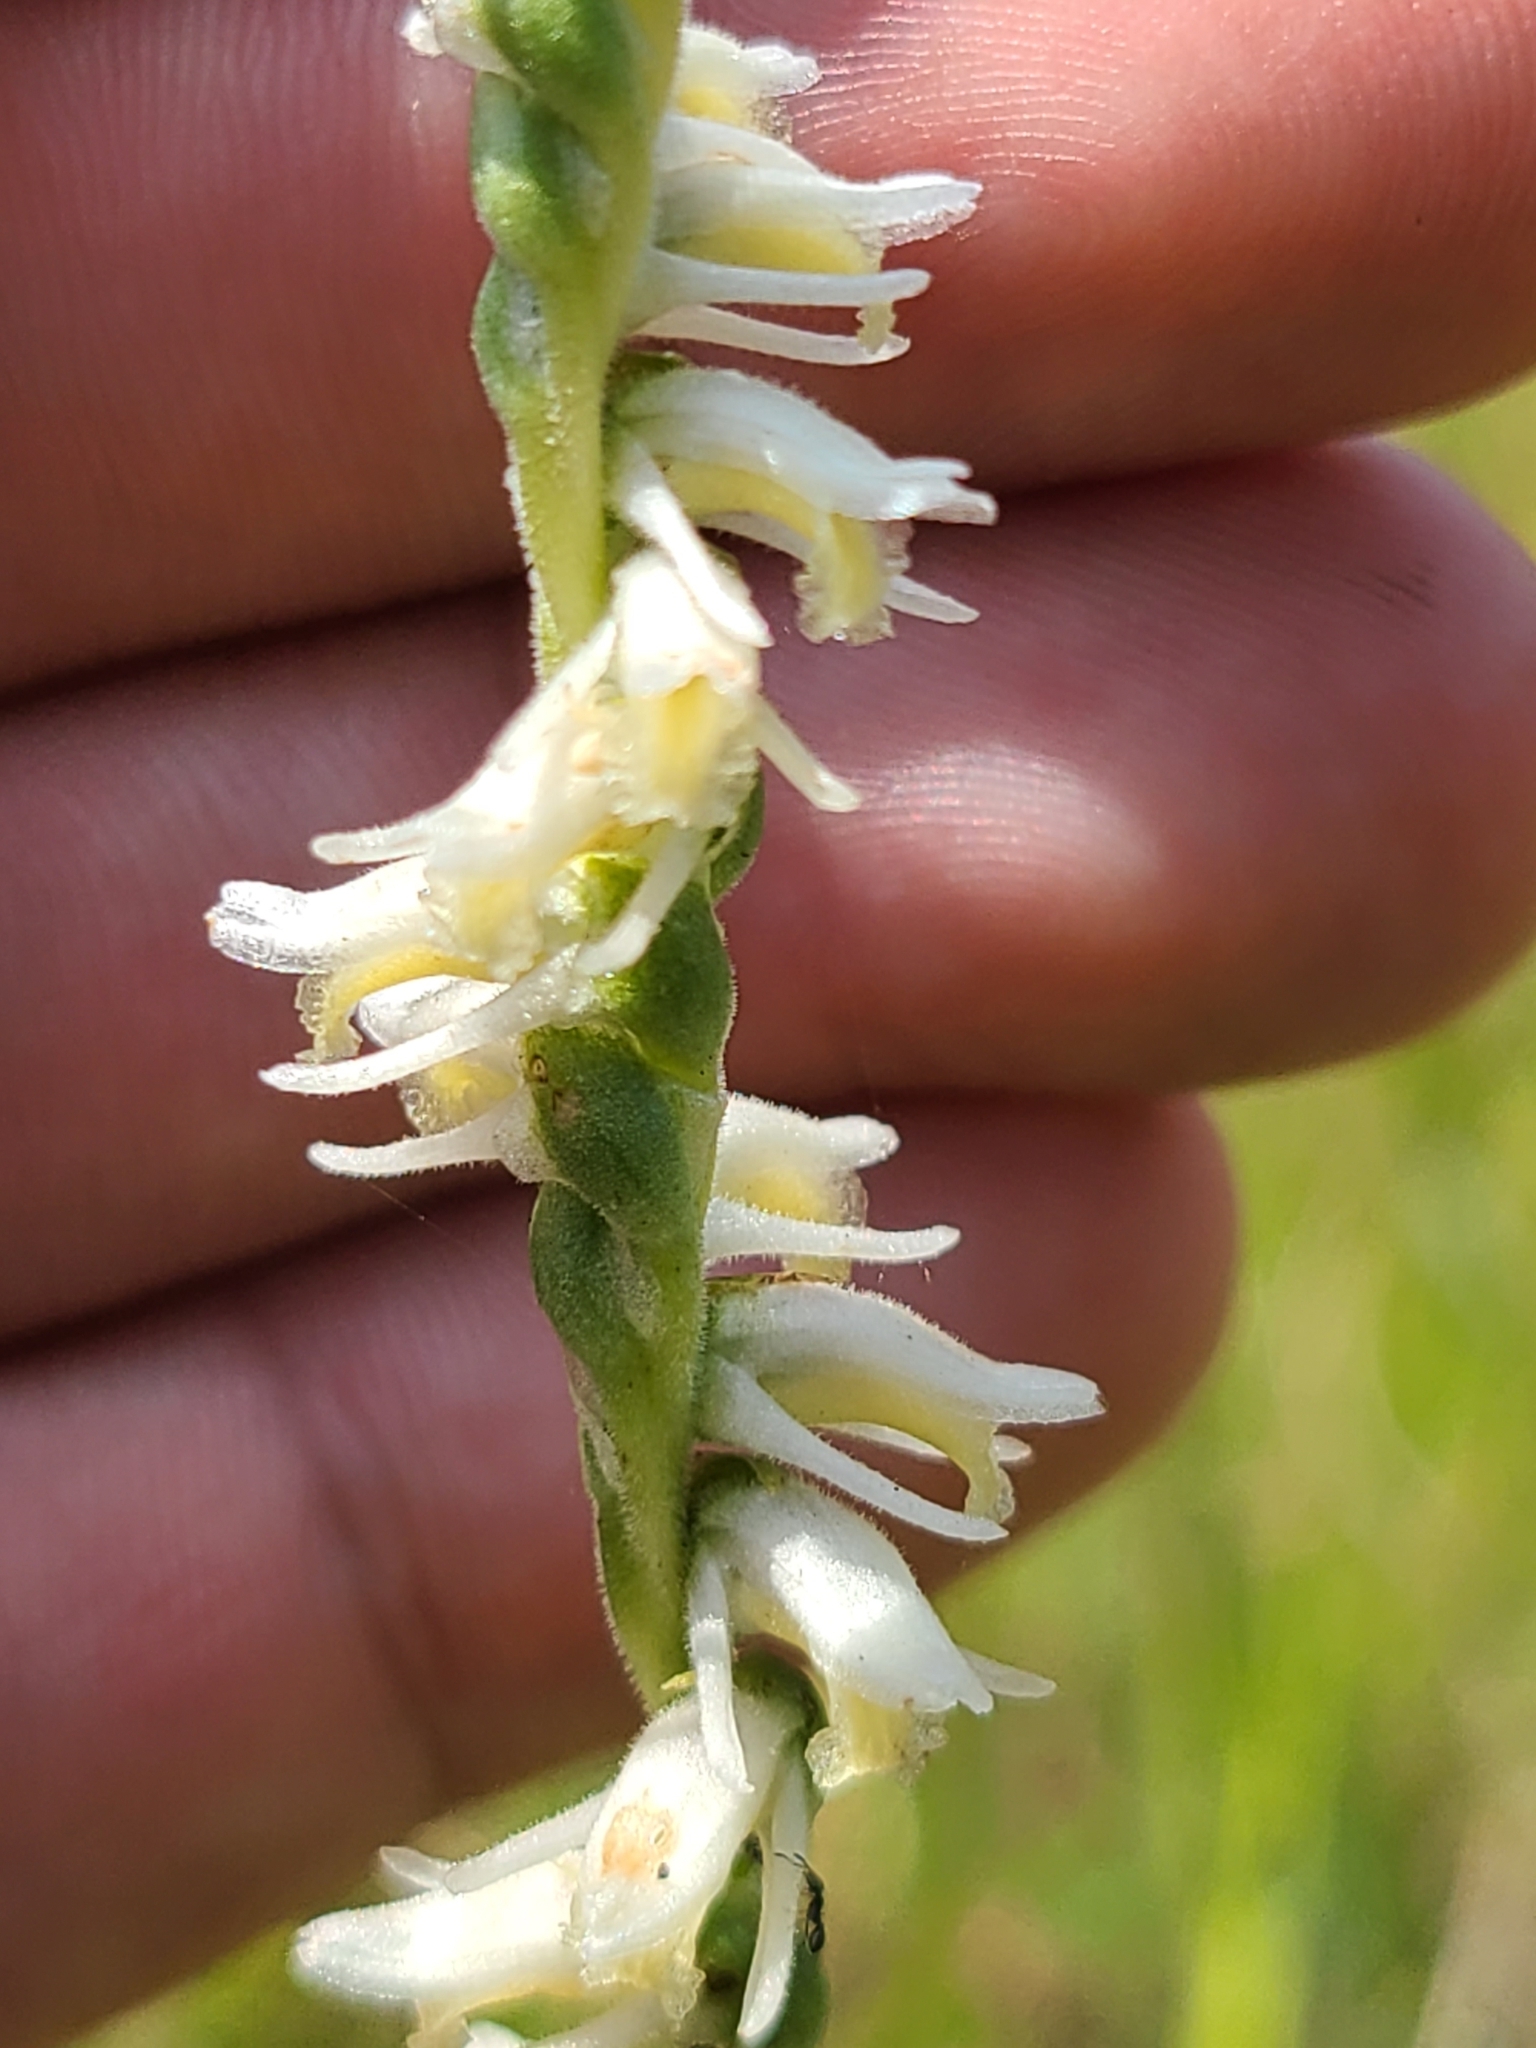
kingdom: Plantae
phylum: Tracheophyta
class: Liliopsida
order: Asparagales
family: Orchidaceae
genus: Spiranthes
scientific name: Spiranthes vernalis
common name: Spring ladies'-tresses
